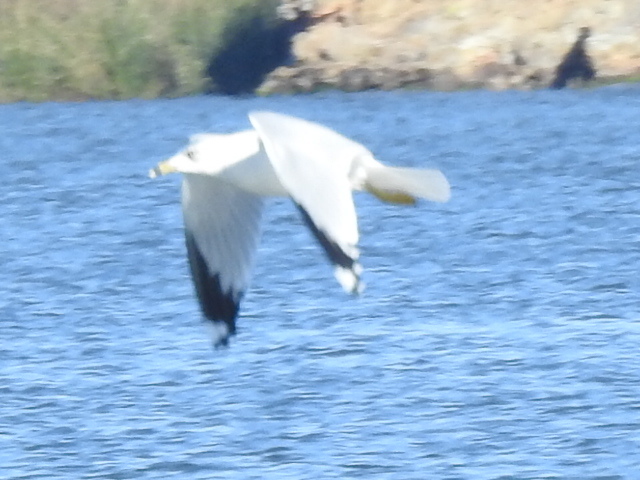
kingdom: Animalia
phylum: Chordata
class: Aves
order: Charadriiformes
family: Laridae
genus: Larus
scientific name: Larus delawarensis
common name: Ring-billed gull
